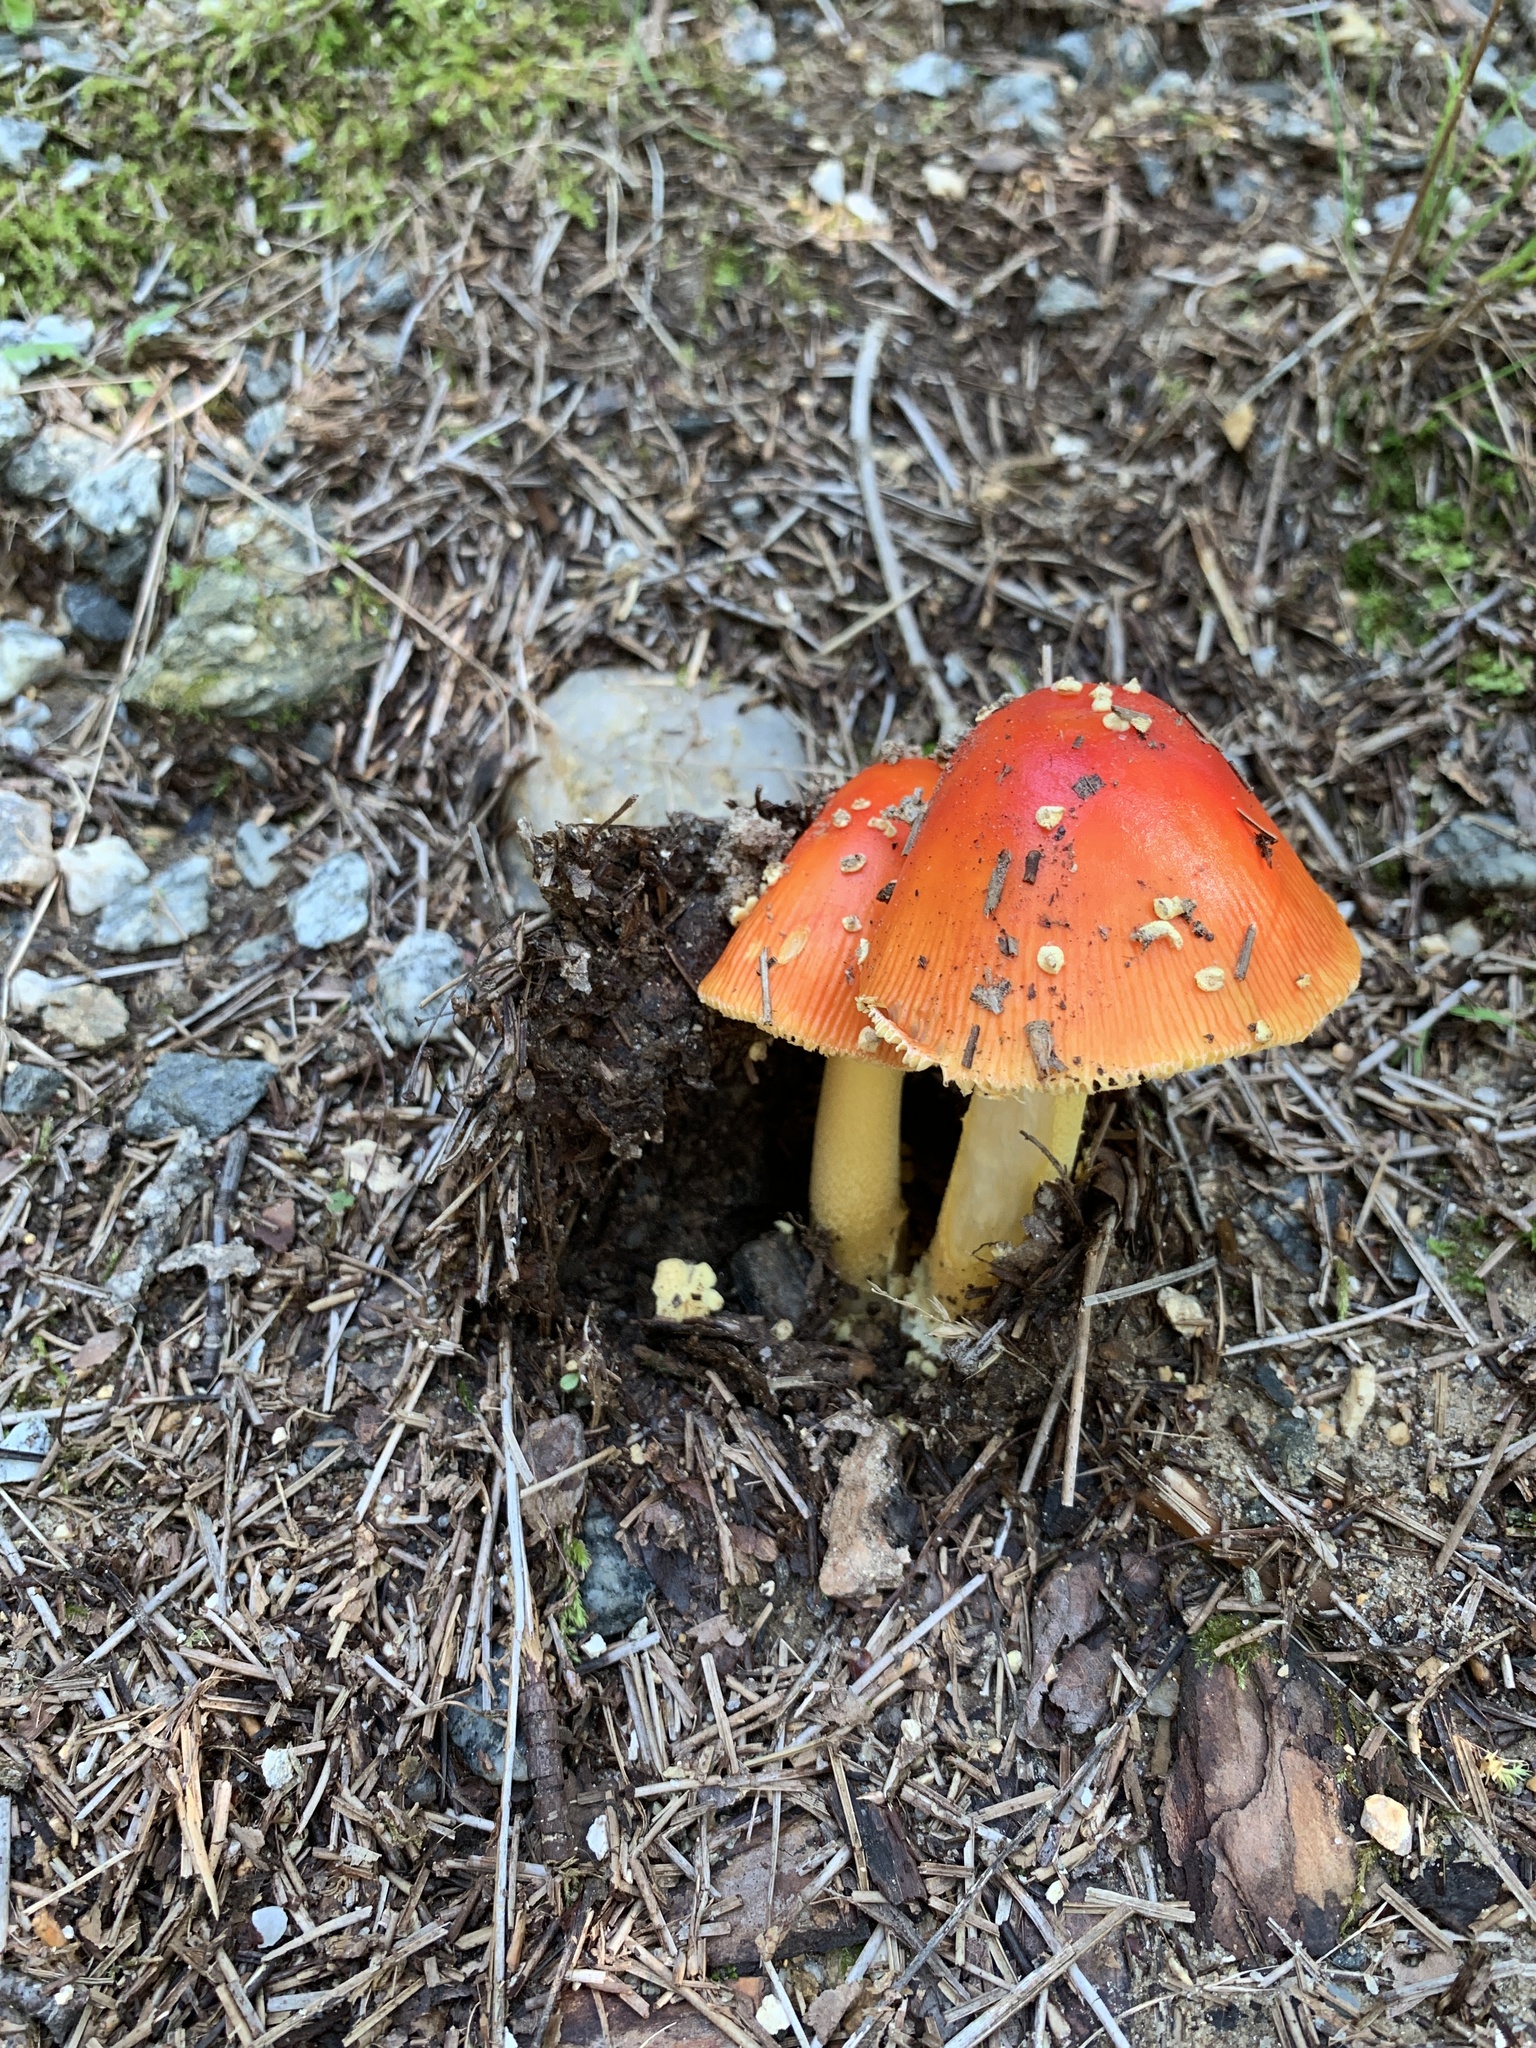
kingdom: Fungi
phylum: Basidiomycota
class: Agaricomycetes
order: Agaricales
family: Amanitaceae
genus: Amanita
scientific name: Amanita parcivolvata
